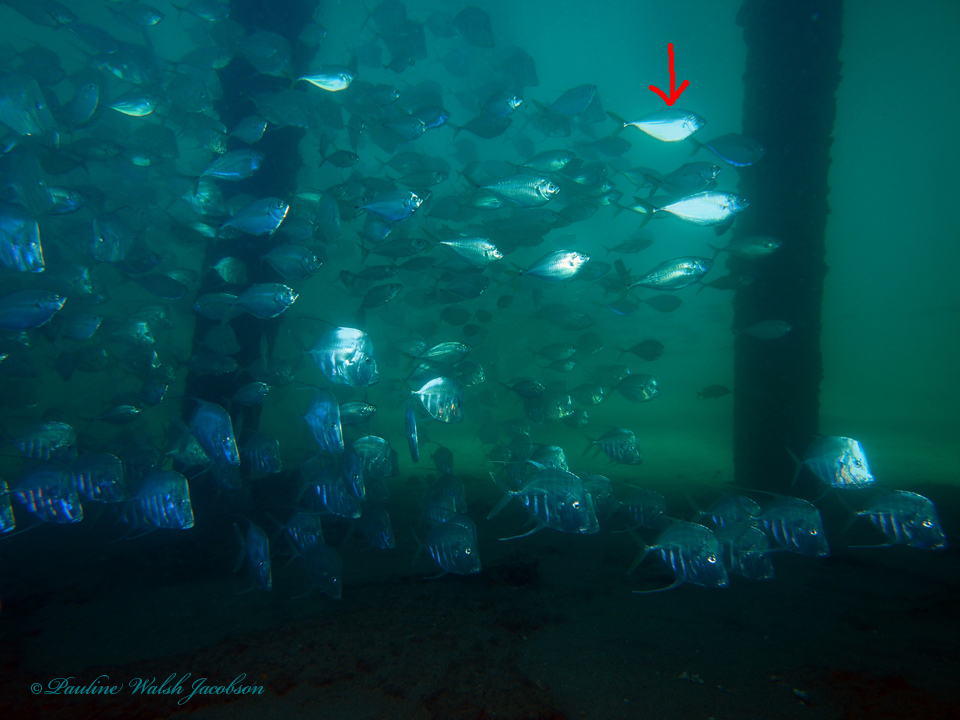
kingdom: Animalia
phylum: Chordata
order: Perciformes
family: Carangidae
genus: Chloroscombrus
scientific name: Chloroscombrus chrysurus
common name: Bumper
